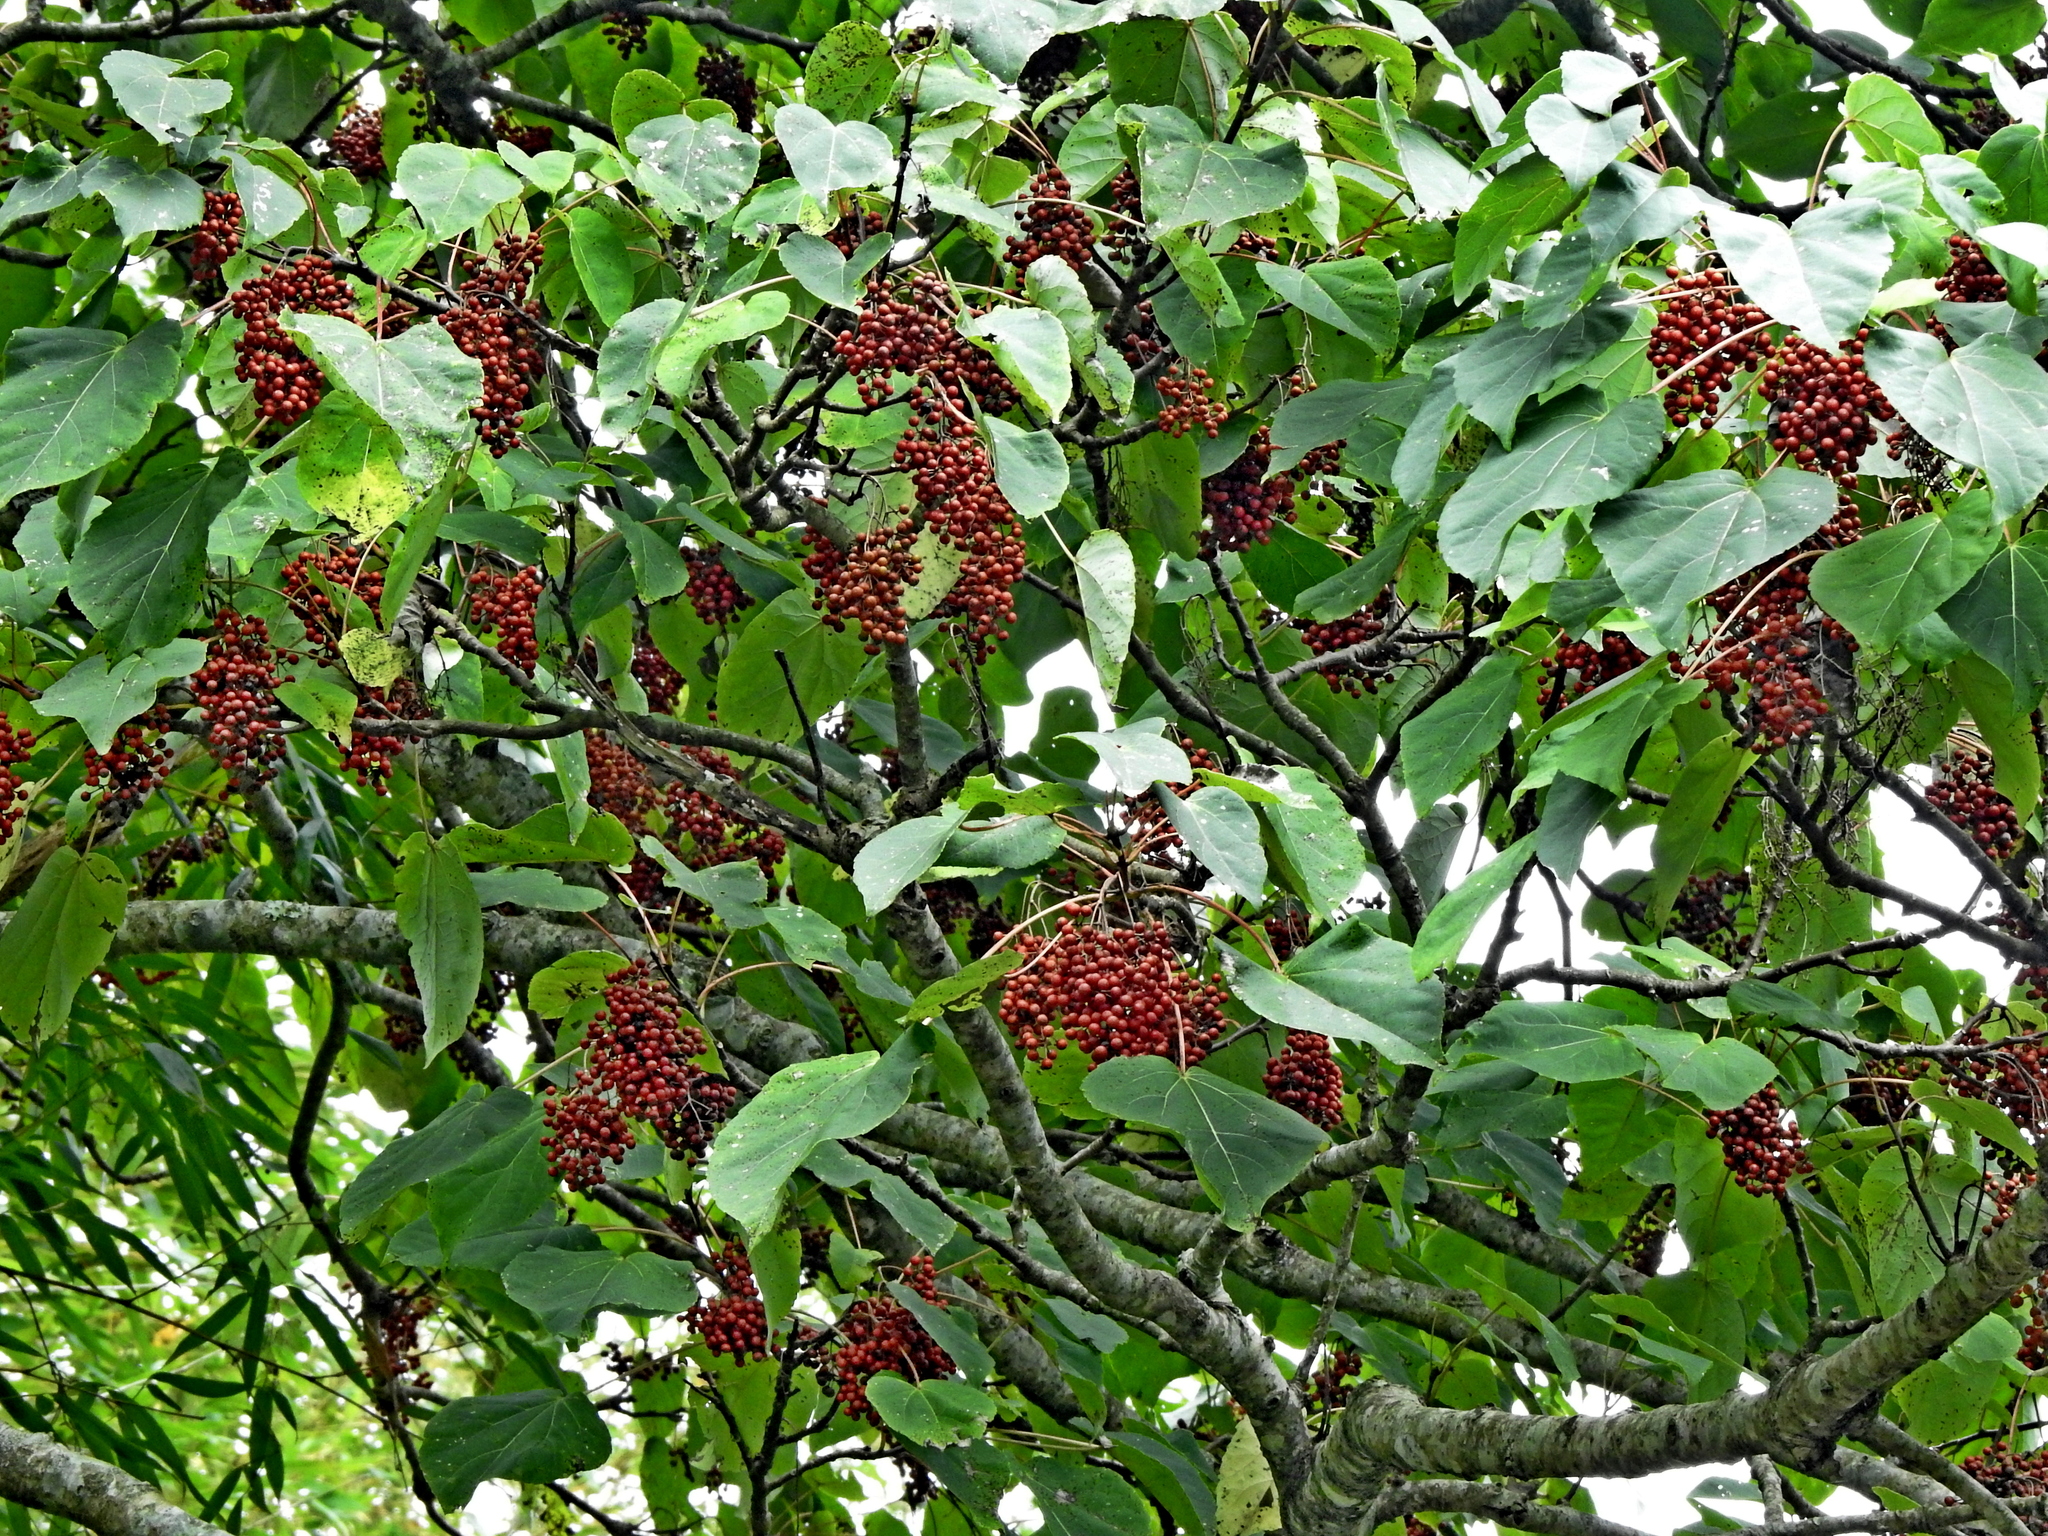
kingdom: Plantae
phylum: Tracheophyta
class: Magnoliopsida
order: Malpighiales
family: Salicaceae
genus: Idesia
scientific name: Idesia polycarpa
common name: Idesia tree
